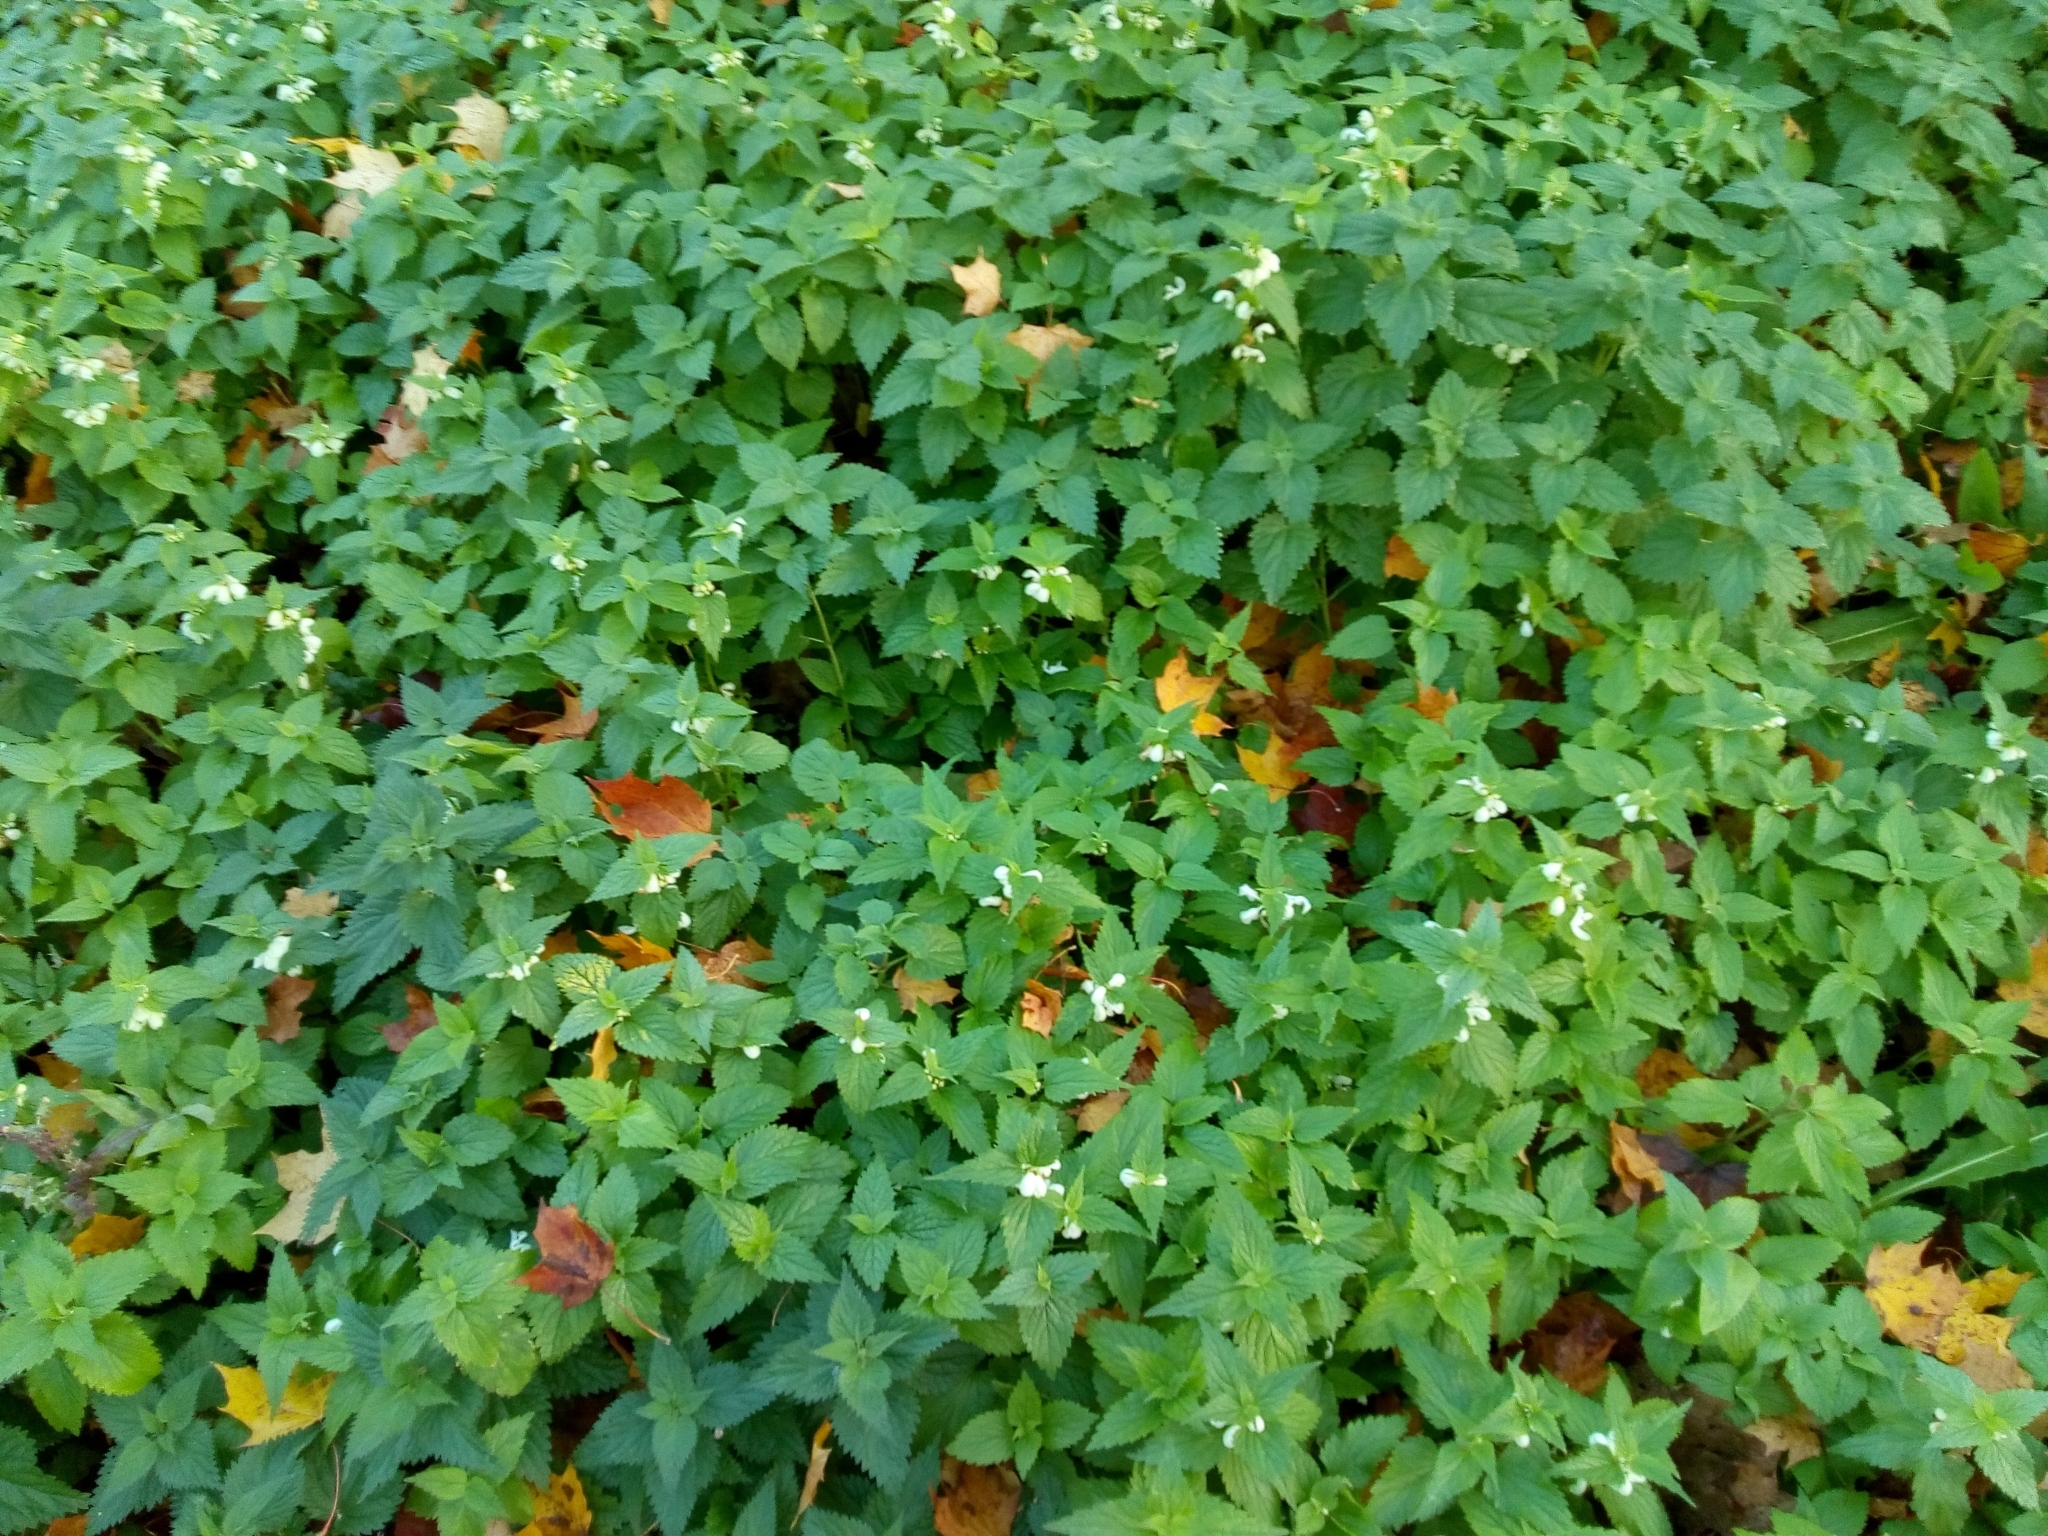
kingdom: Plantae
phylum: Tracheophyta
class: Magnoliopsida
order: Lamiales
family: Lamiaceae
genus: Lamium
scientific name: Lamium album
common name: White dead-nettle
